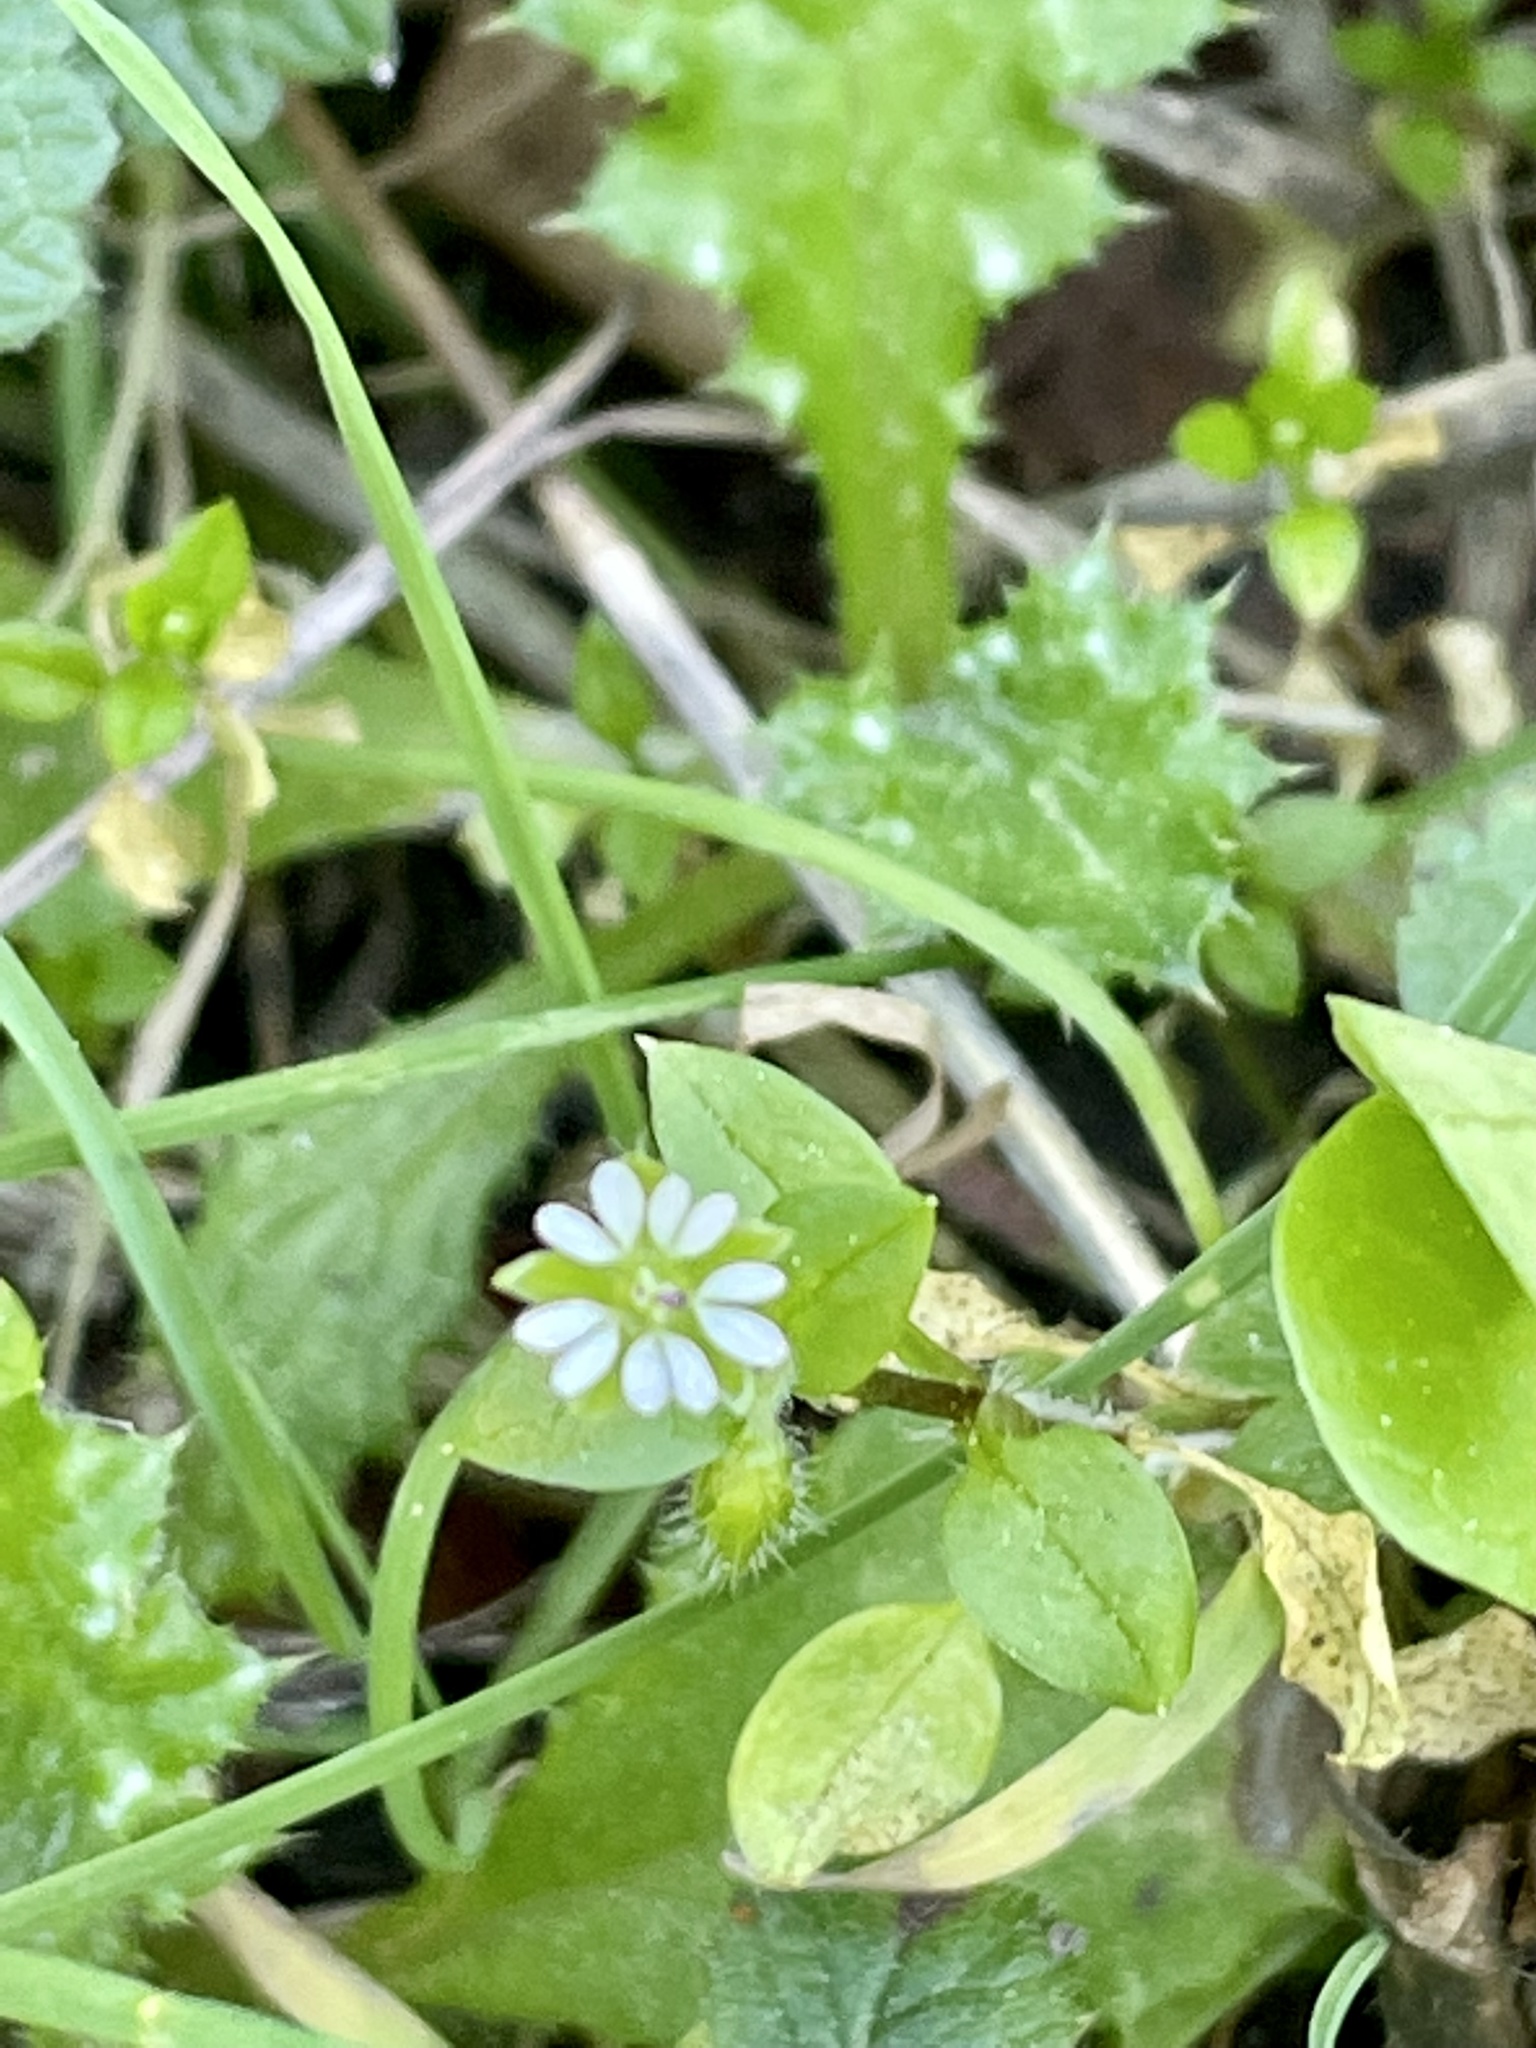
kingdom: Plantae
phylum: Tracheophyta
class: Magnoliopsida
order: Caryophyllales
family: Caryophyllaceae
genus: Stellaria
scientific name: Stellaria media
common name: Common chickweed
